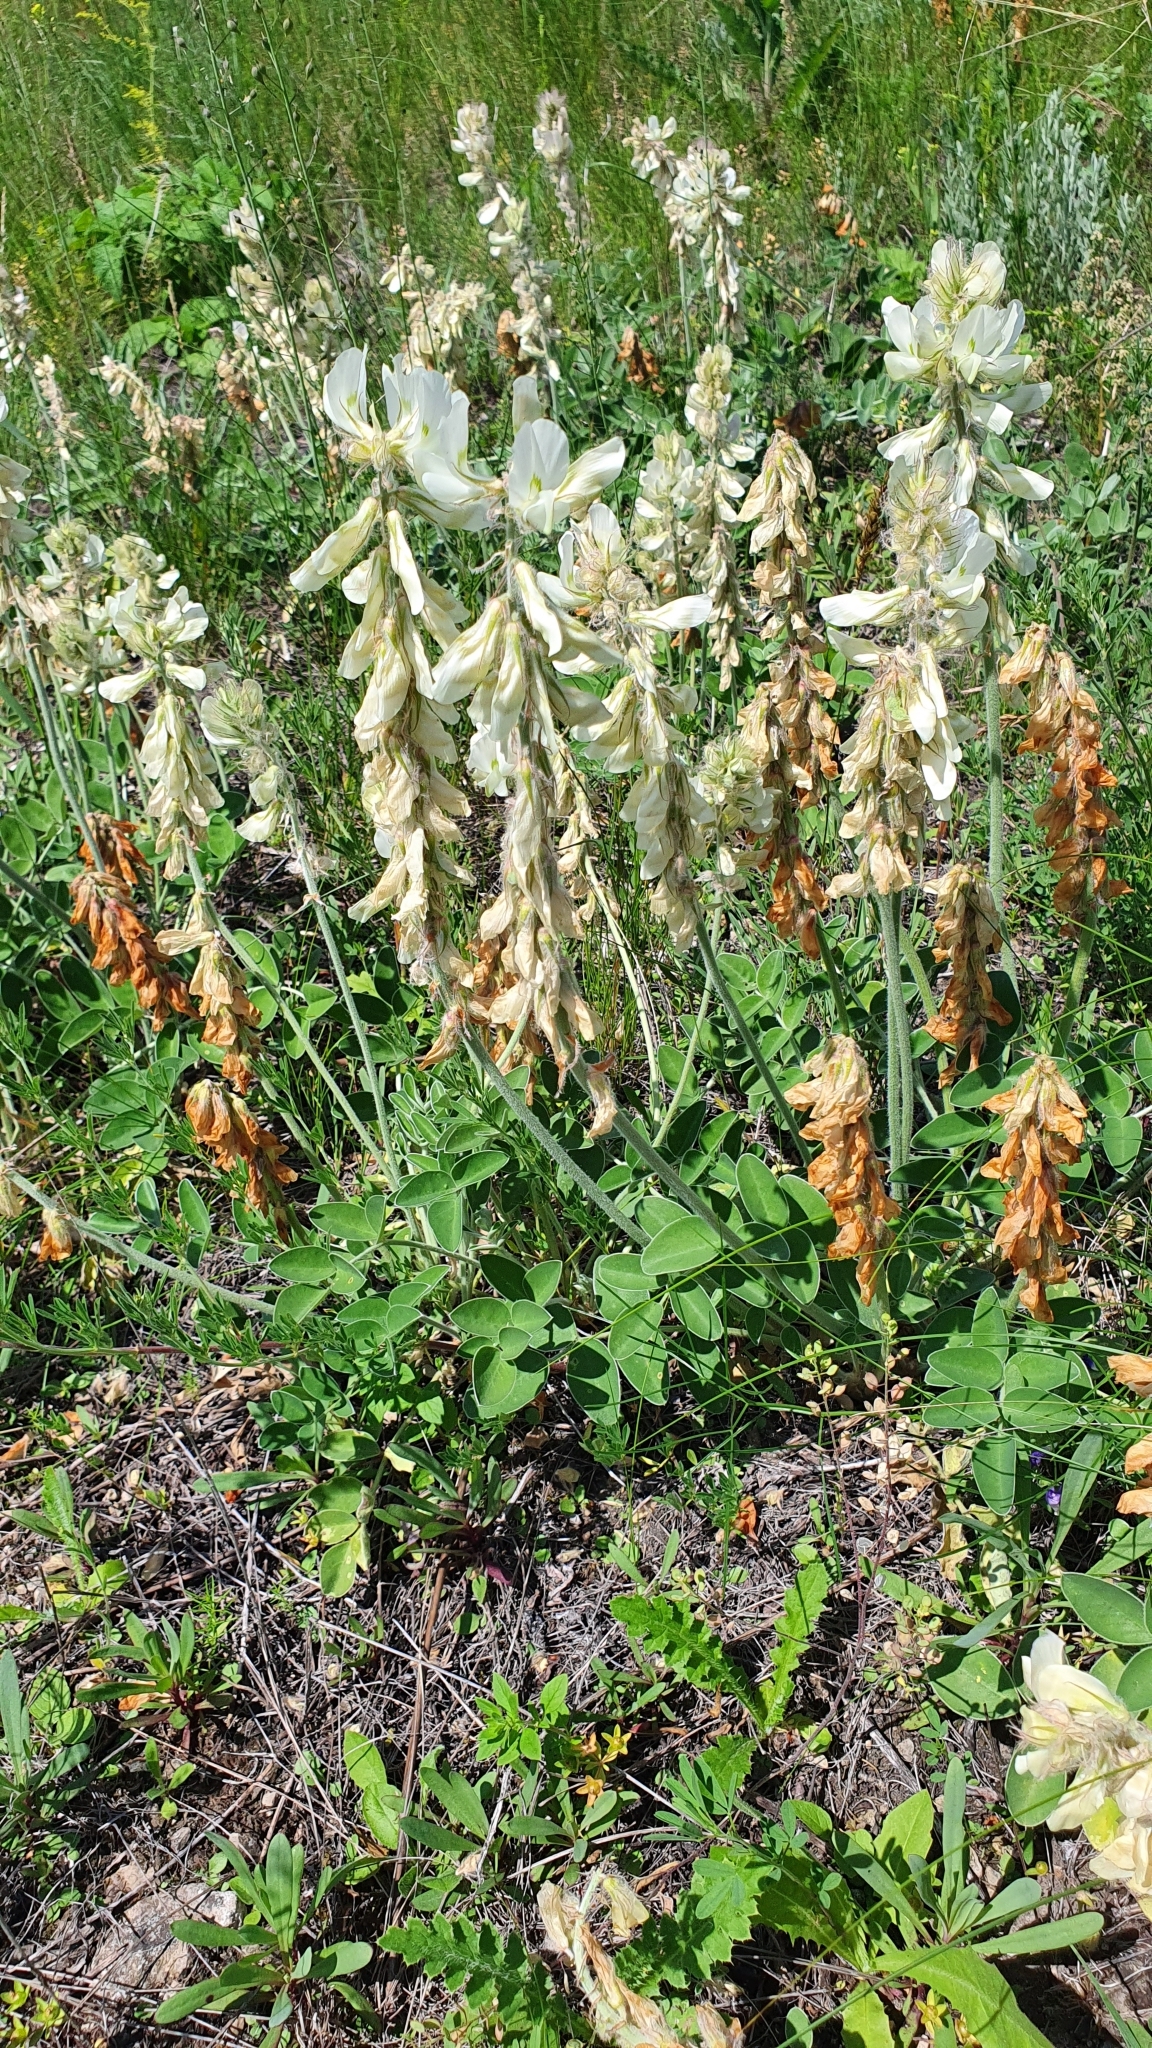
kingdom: Plantae
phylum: Tracheophyta
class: Magnoliopsida
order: Fabales
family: Fabaceae
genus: Hedysarum
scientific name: Hedysarum grandiflorum
